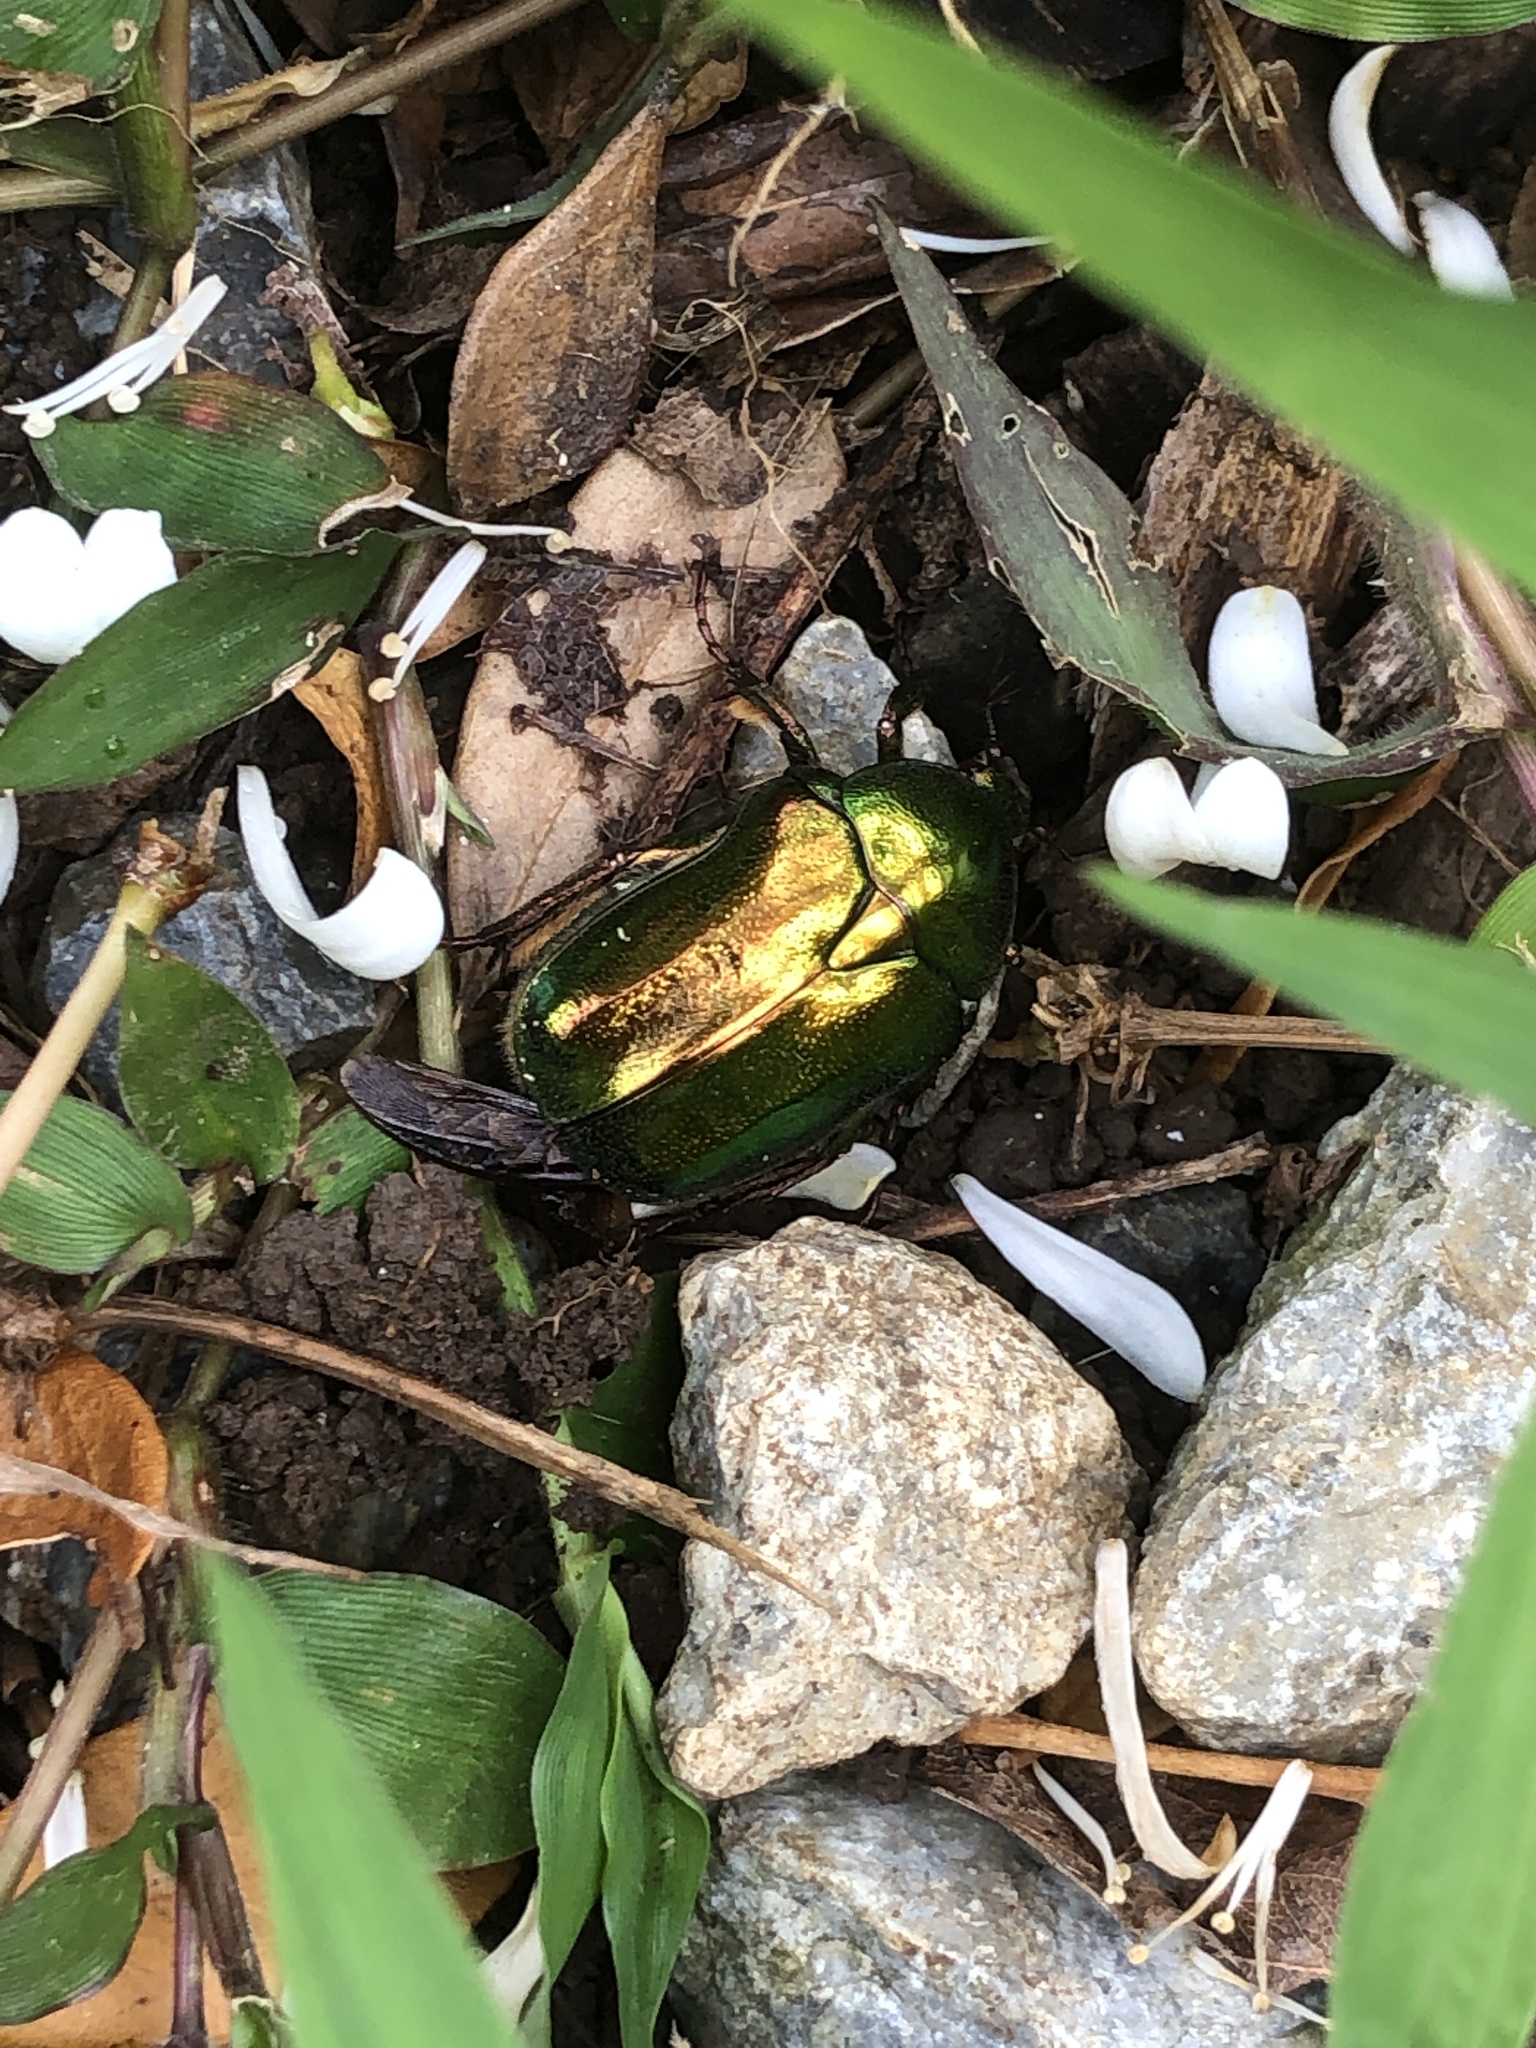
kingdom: Animalia
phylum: Arthropoda
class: Insecta
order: Coleoptera
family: Scarabaeidae
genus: Protaetia
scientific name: Protaetia pryeri
